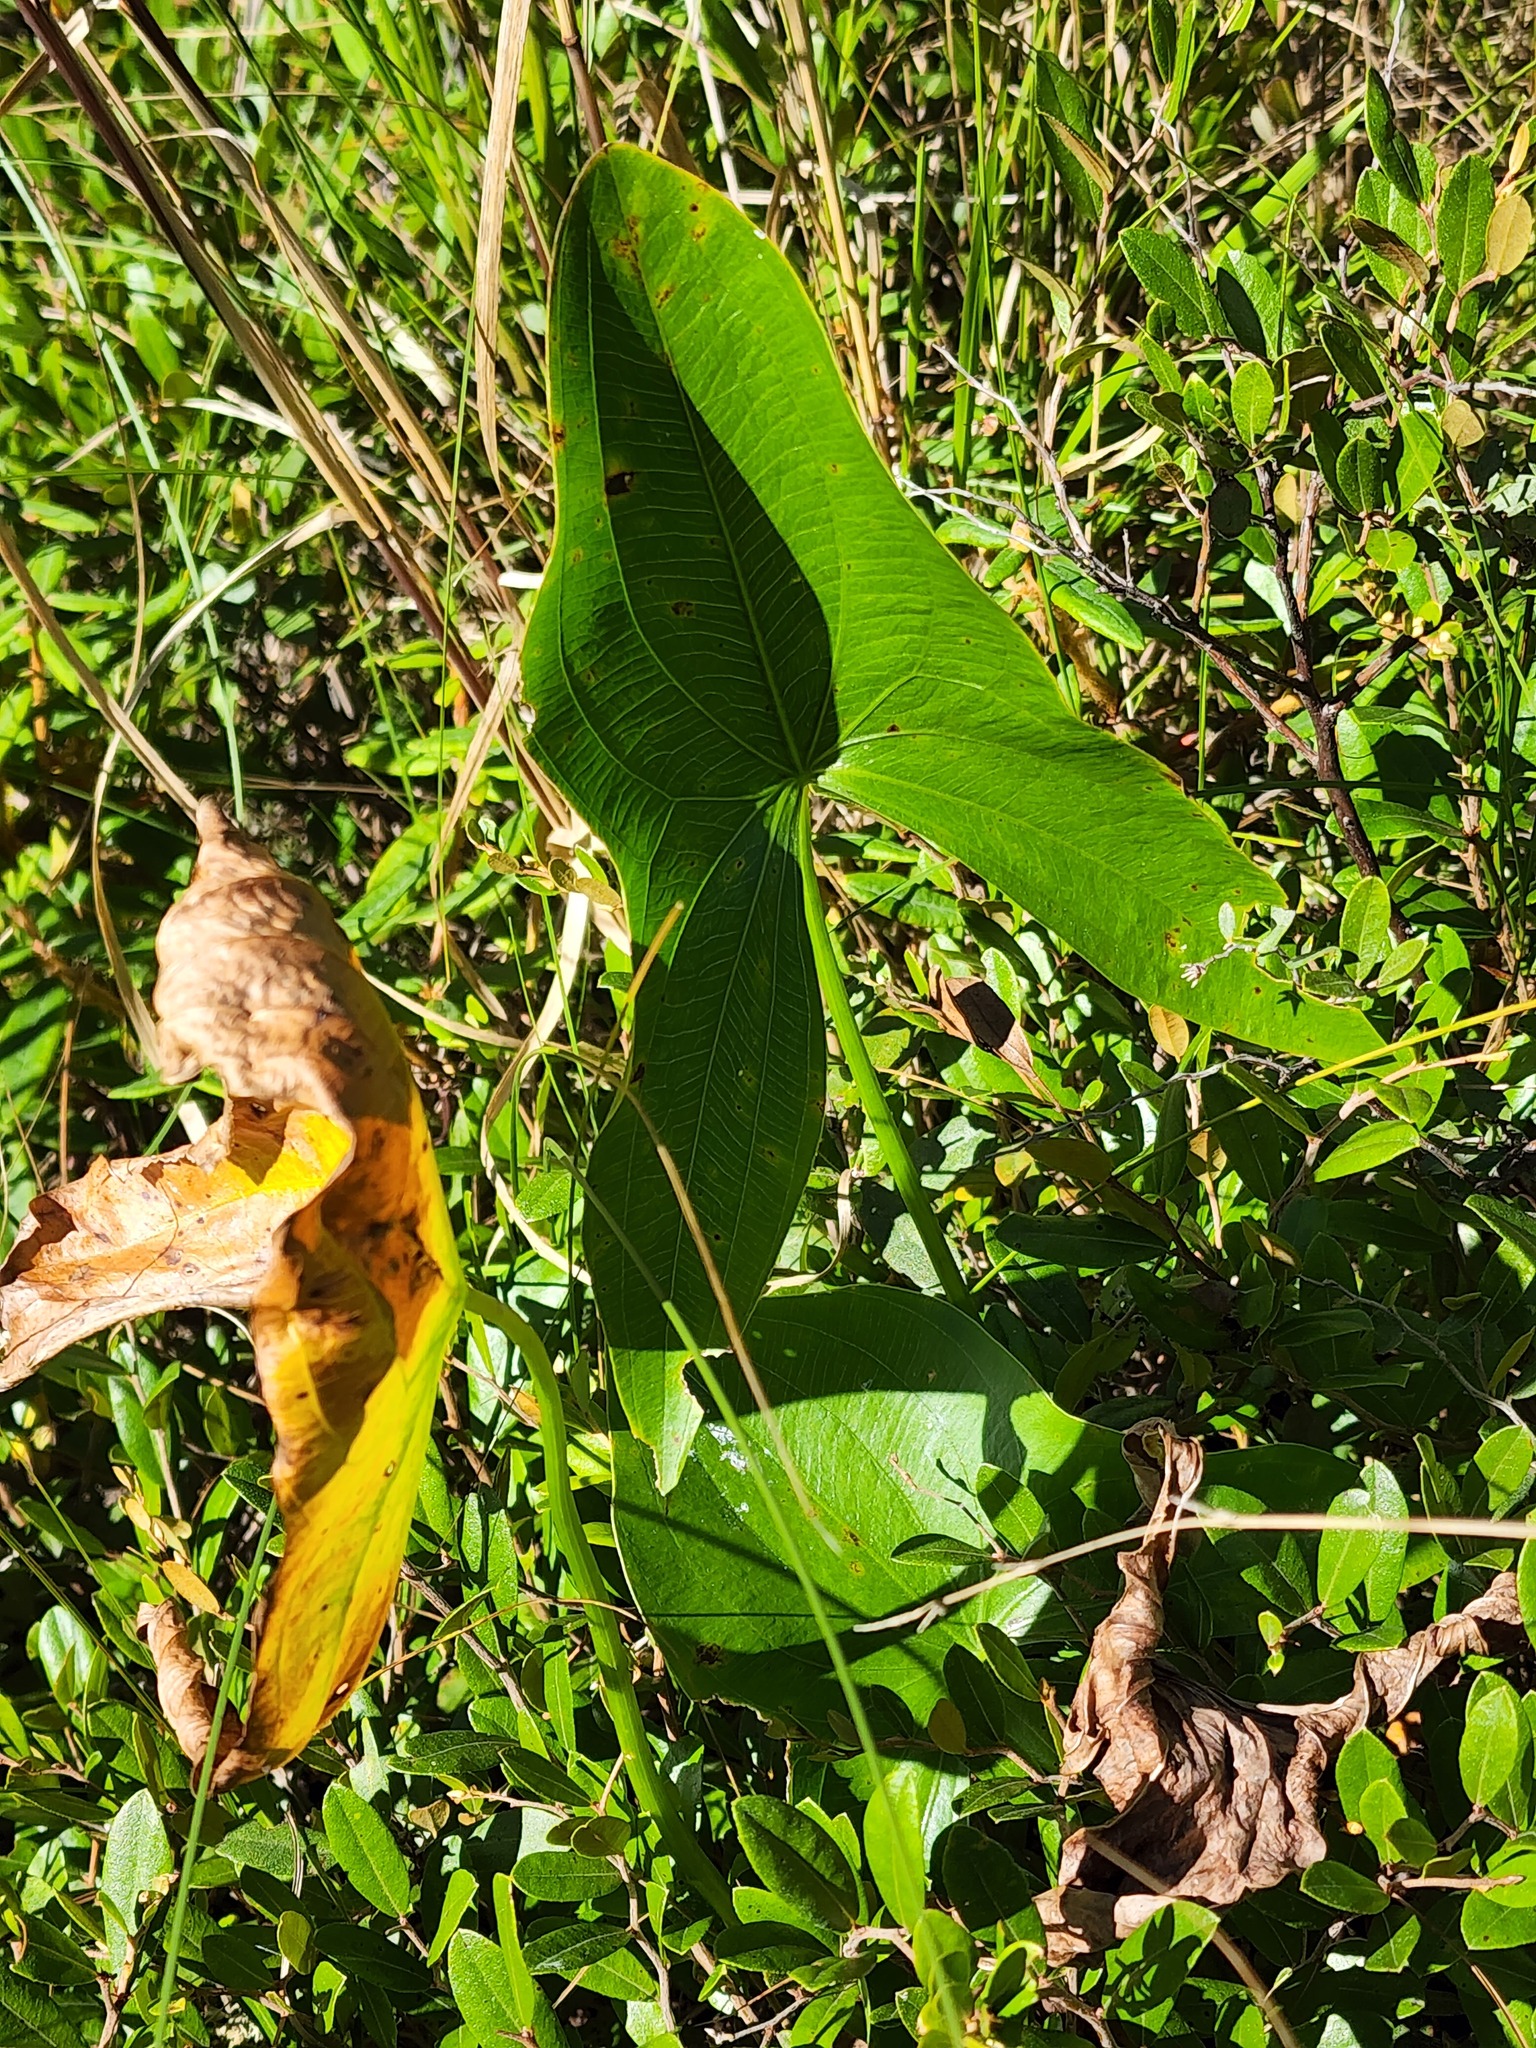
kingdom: Plantae
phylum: Tracheophyta
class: Liliopsida
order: Alismatales
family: Alismataceae
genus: Sagittaria
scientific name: Sagittaria latifolia
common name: Duck-potato
